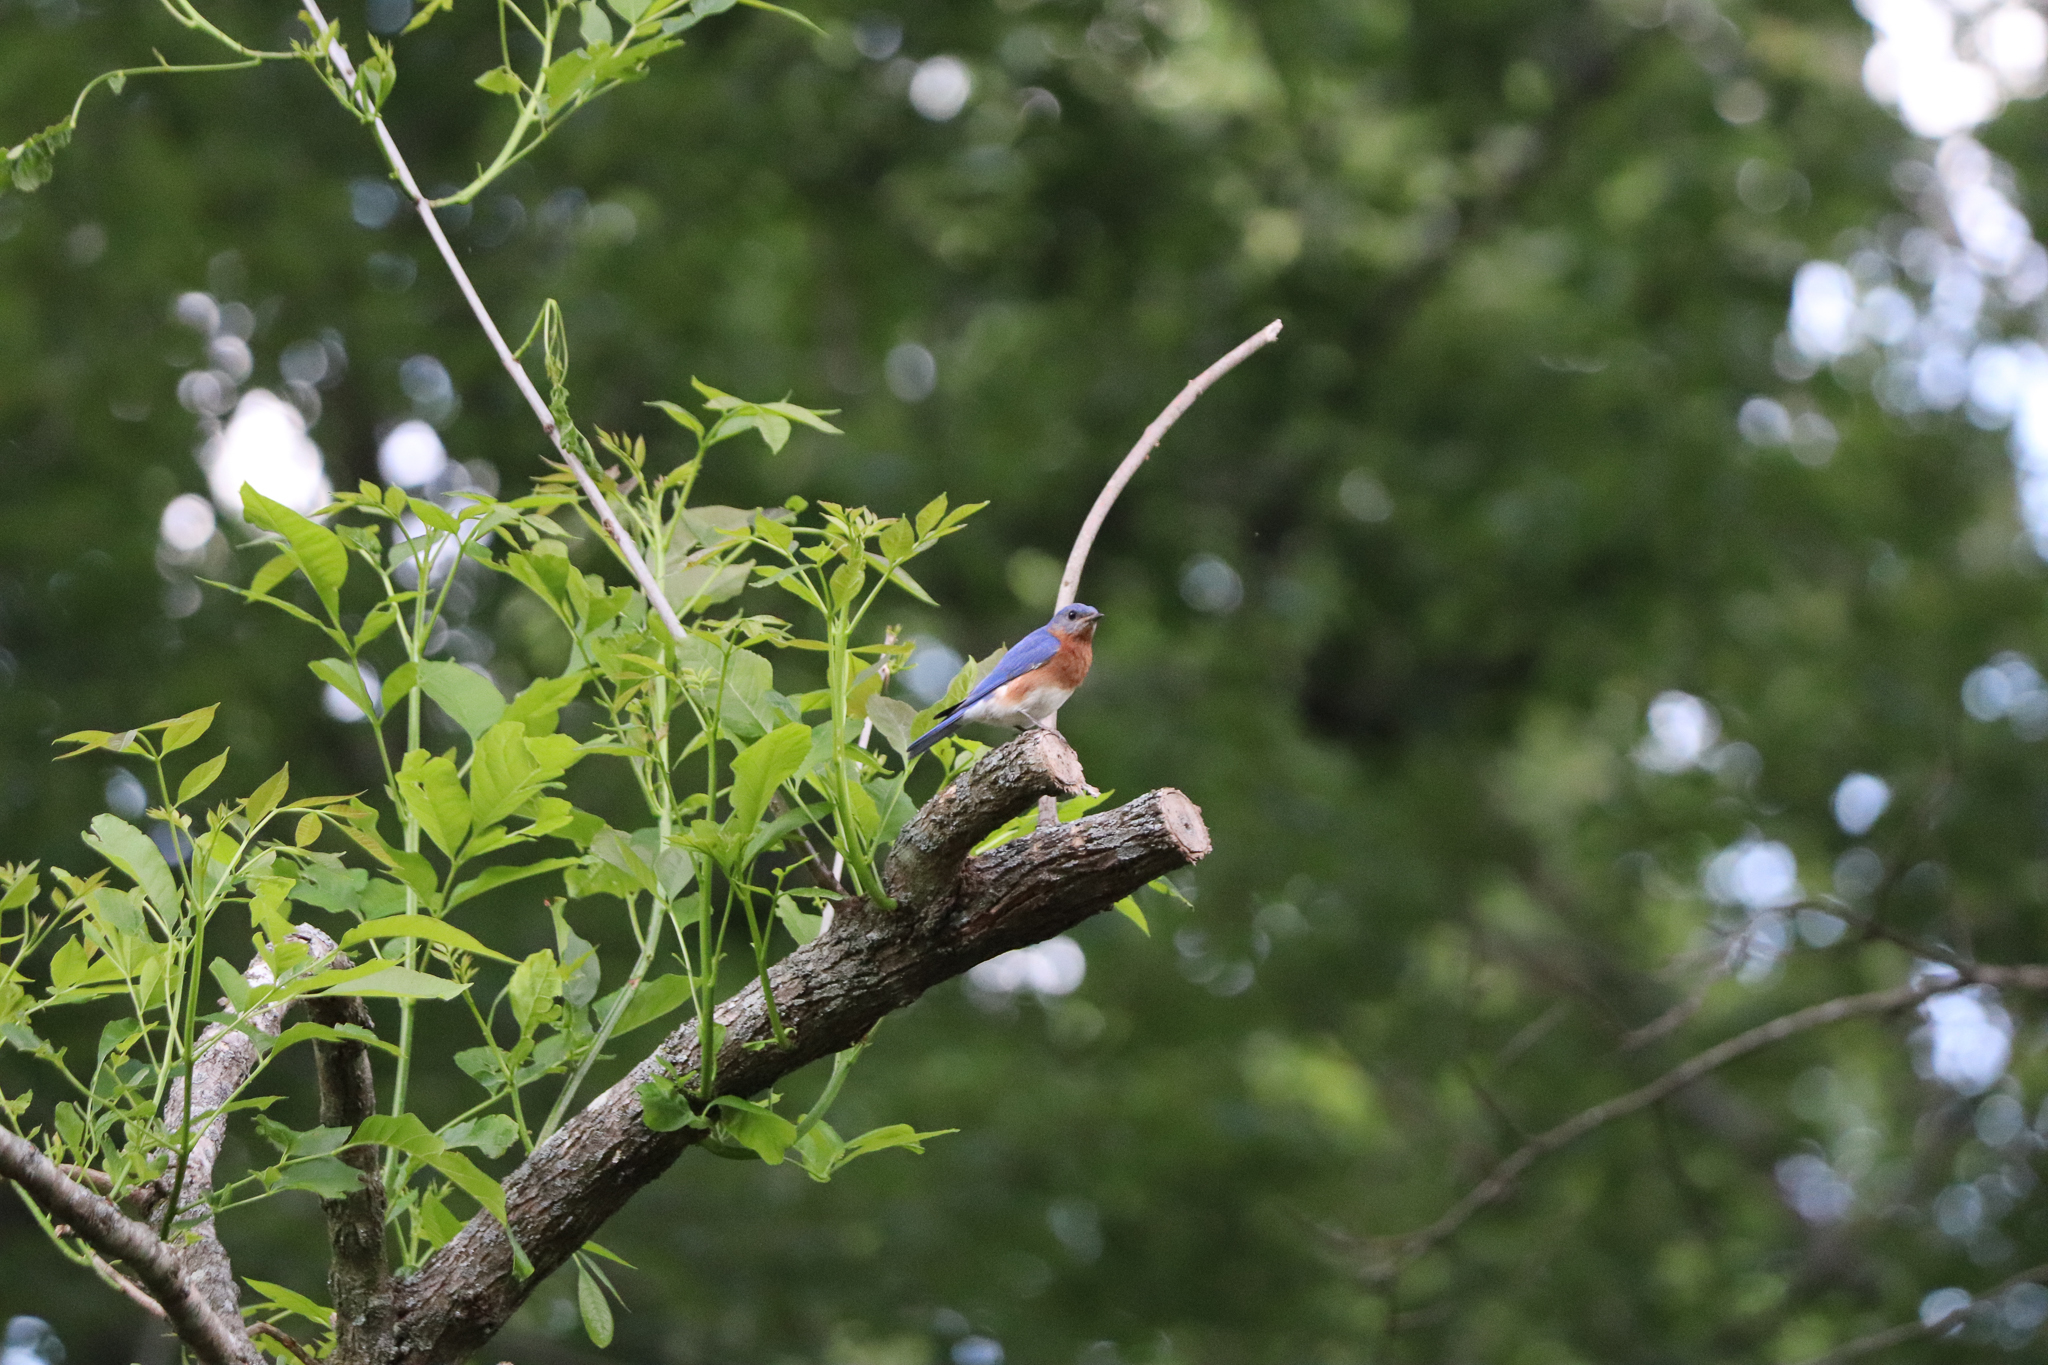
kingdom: Animalia
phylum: Chordata
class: Aves
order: Passeriformes
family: Turdidae
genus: Sialia
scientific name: Sialia sialis
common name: Eastern bluebird
